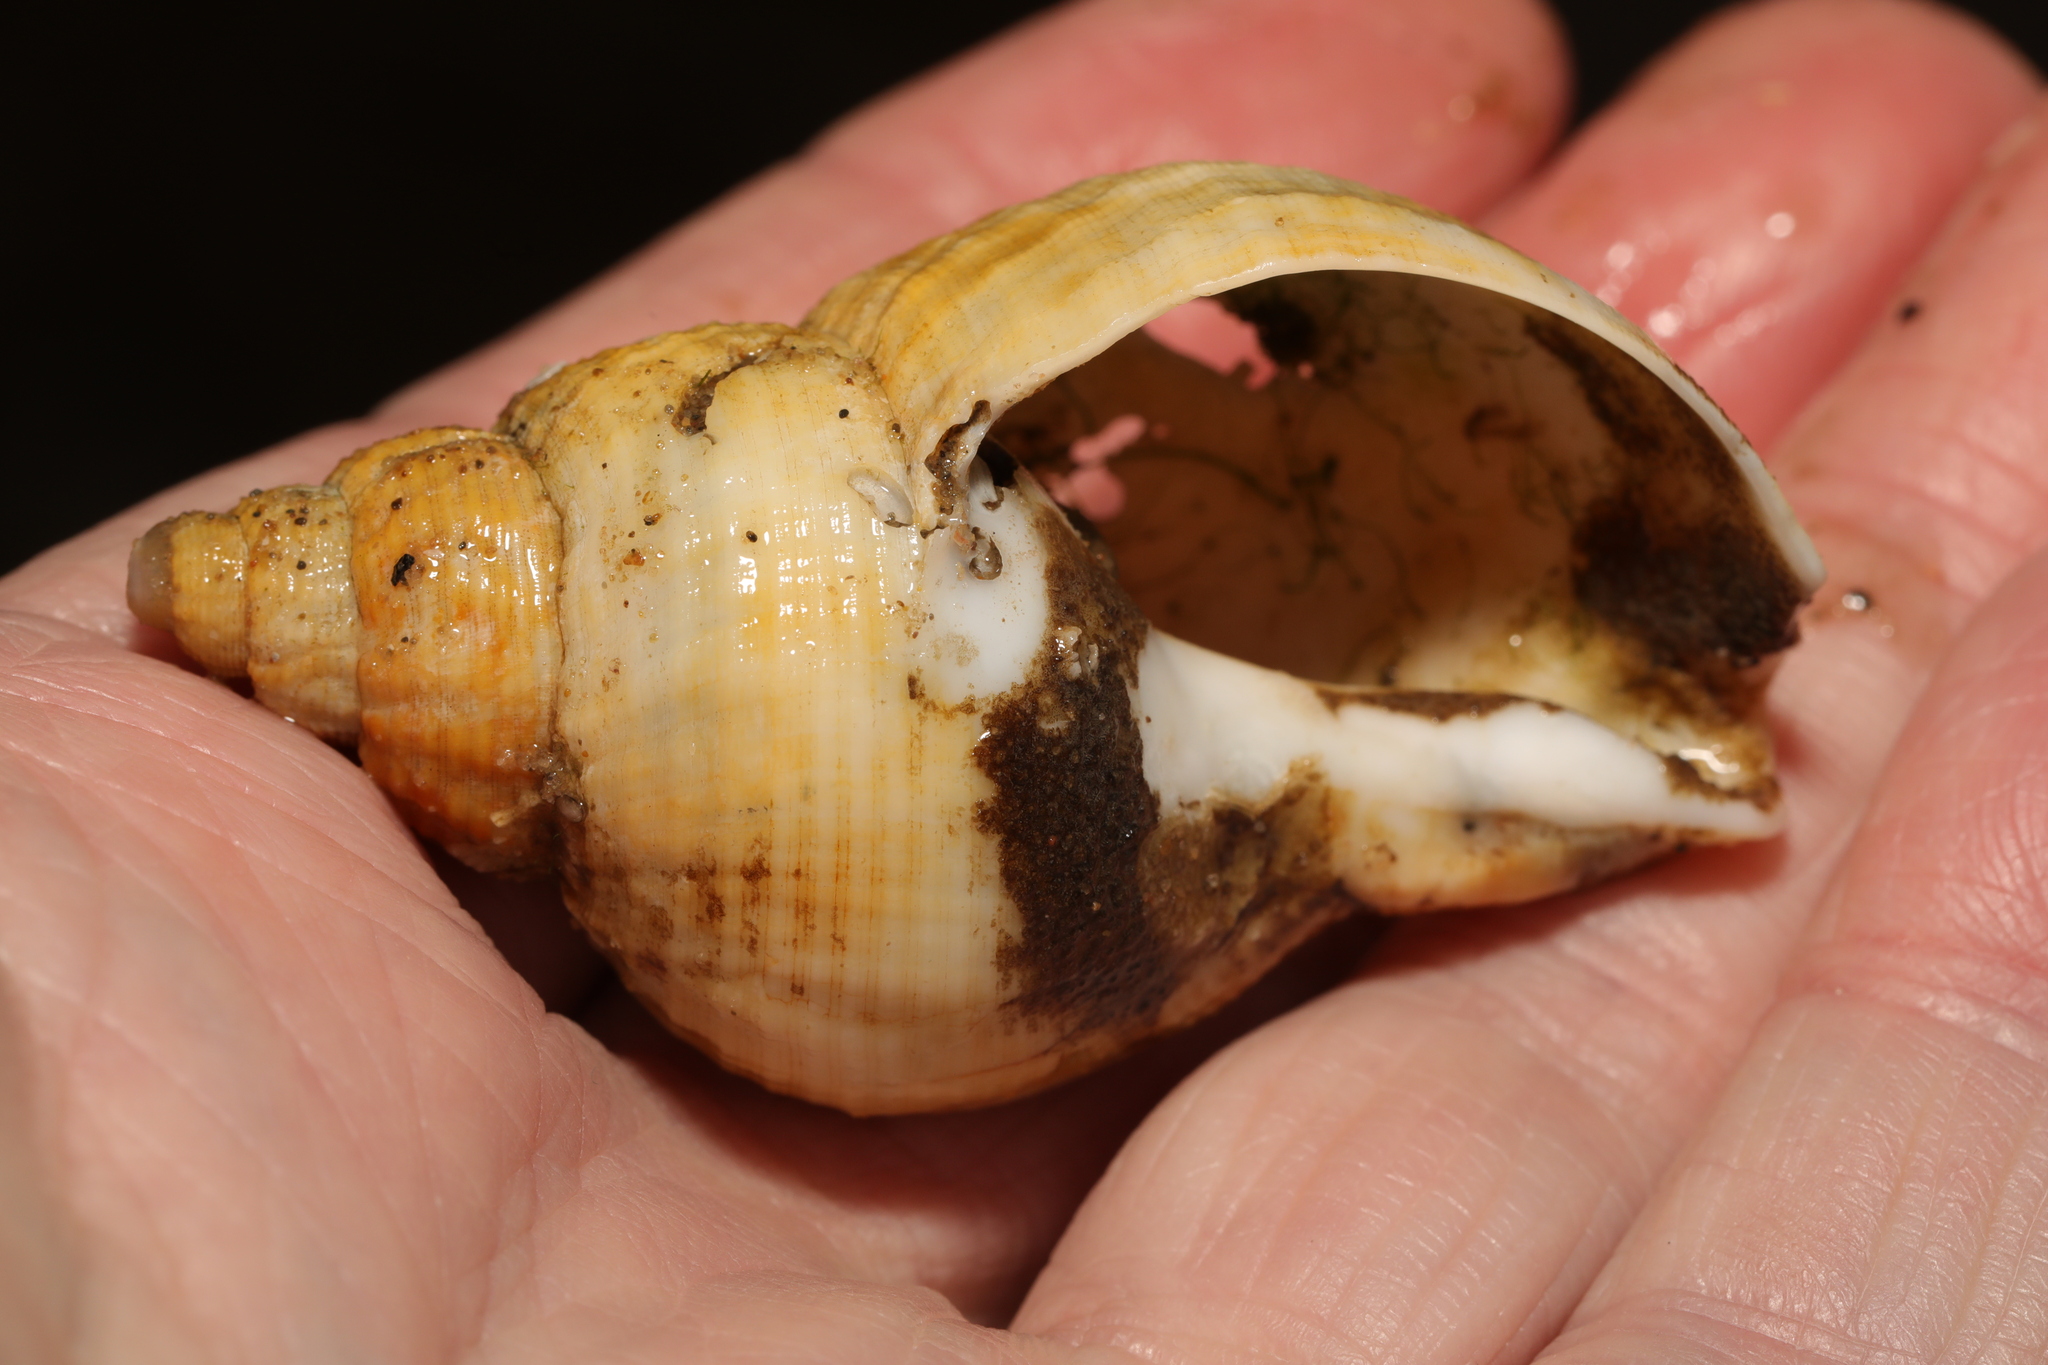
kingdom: Animalia
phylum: Mollusca
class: Gastropoda
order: Neogastropoda
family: Buccinidae
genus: Buccinum
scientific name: Buccinum undatum
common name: Common whelk
